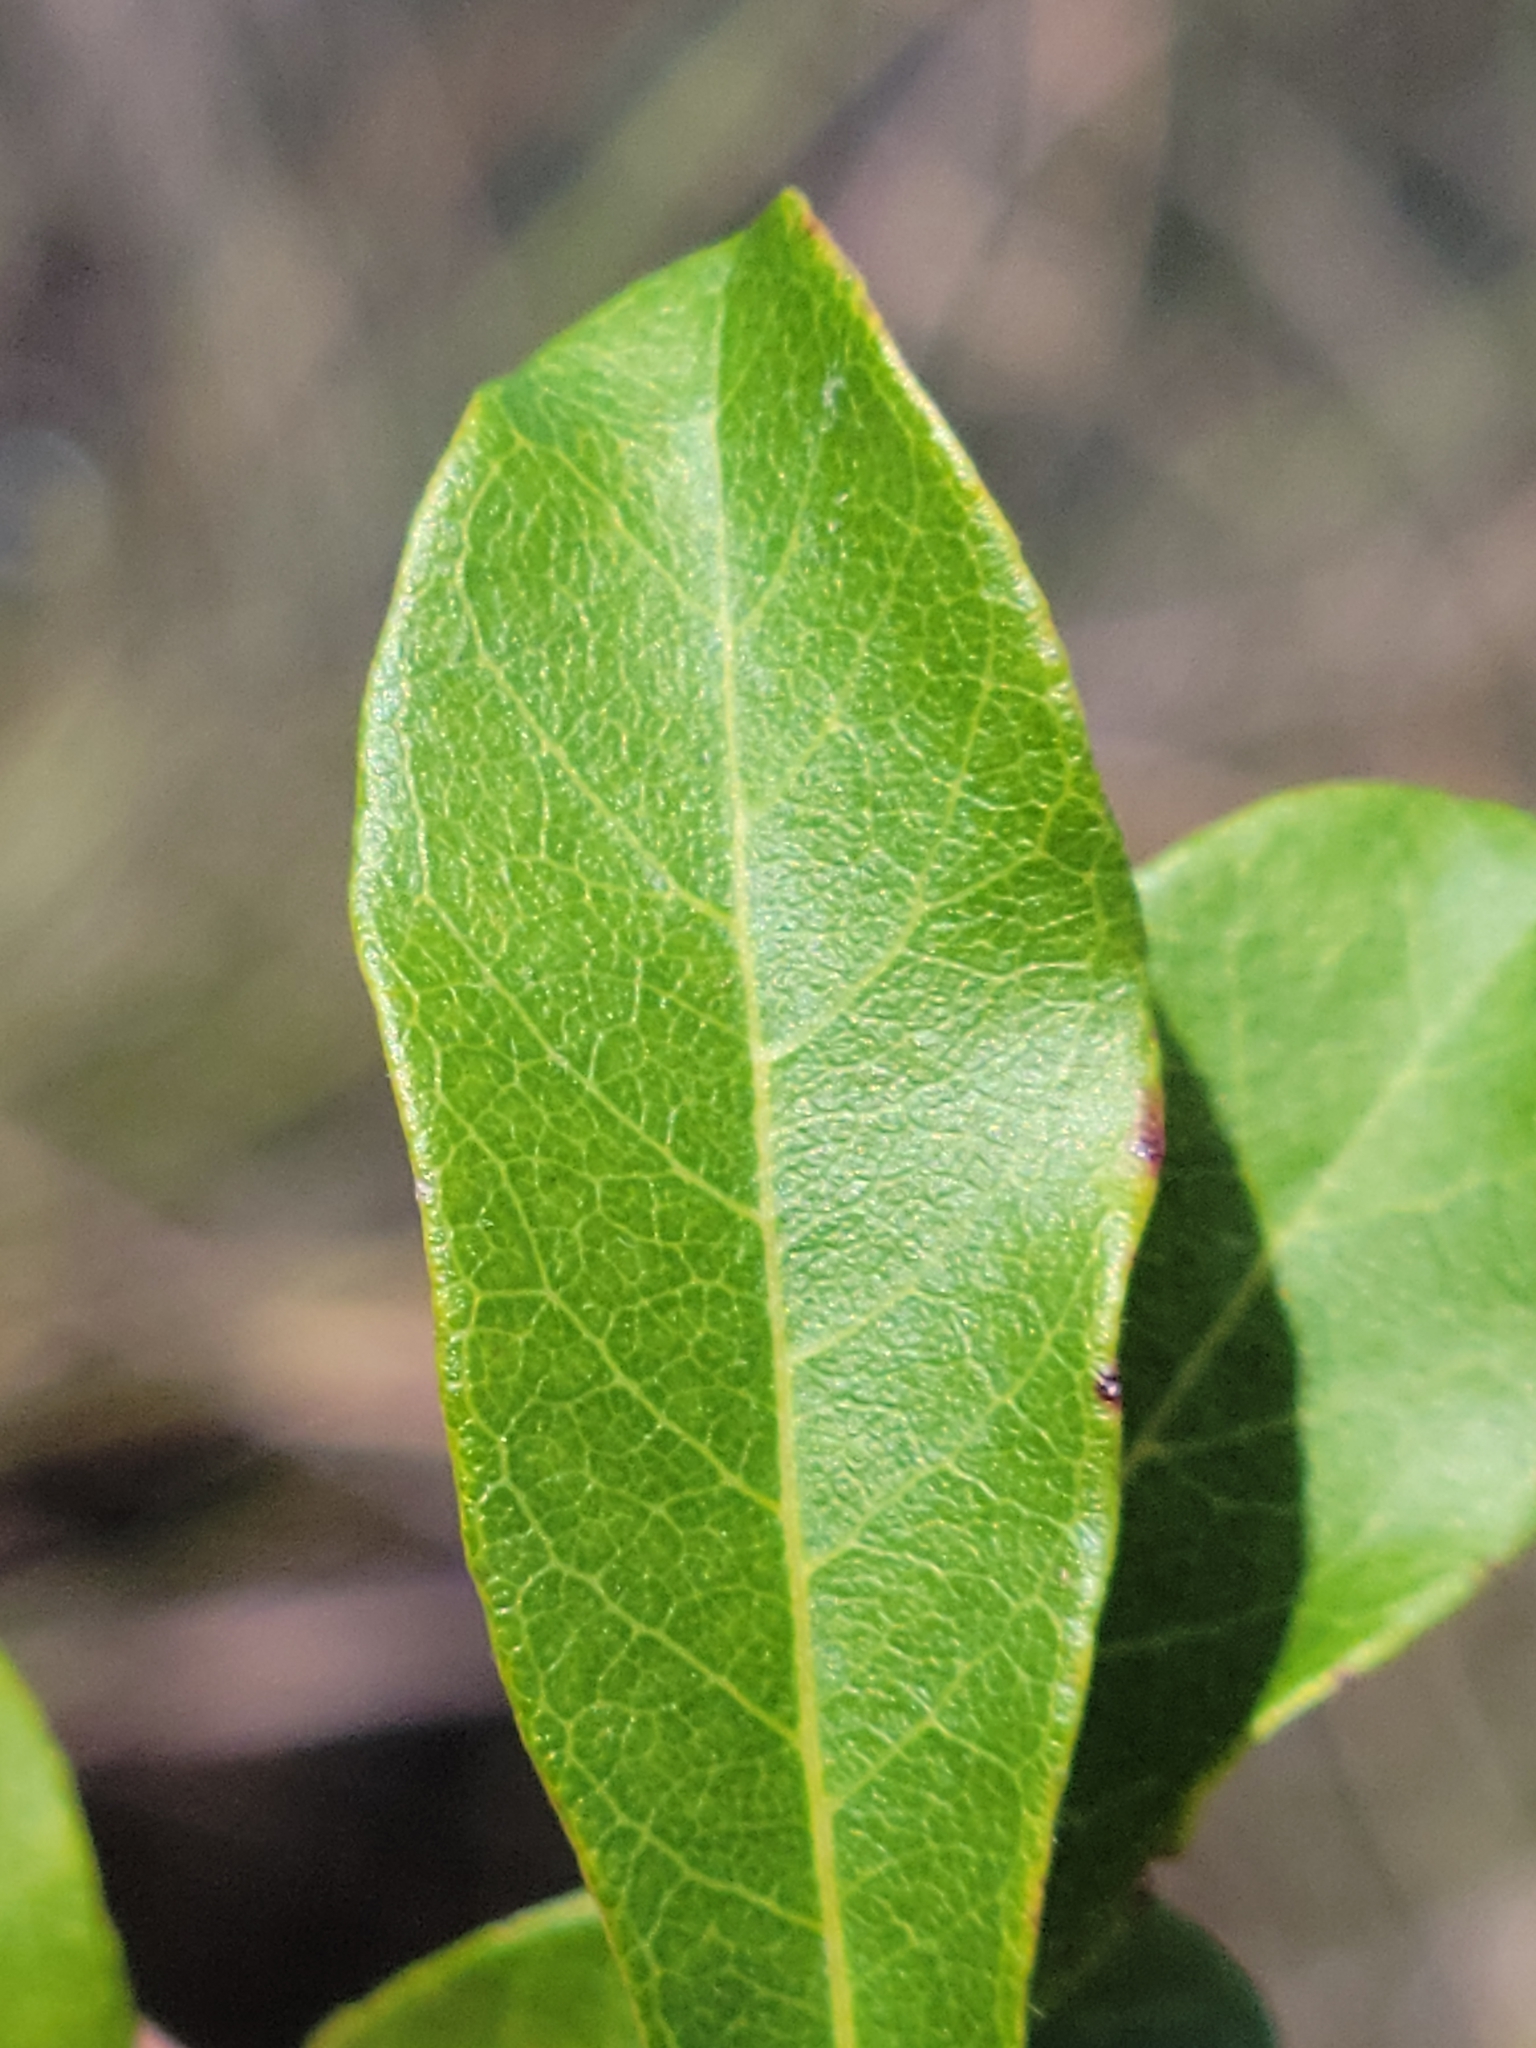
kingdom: Plantae
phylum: Tracheophyta
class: Magnoliopsida
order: Ericales
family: Sapotaceae
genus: Sideroxylon
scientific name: Sideroxylon reclinatum
